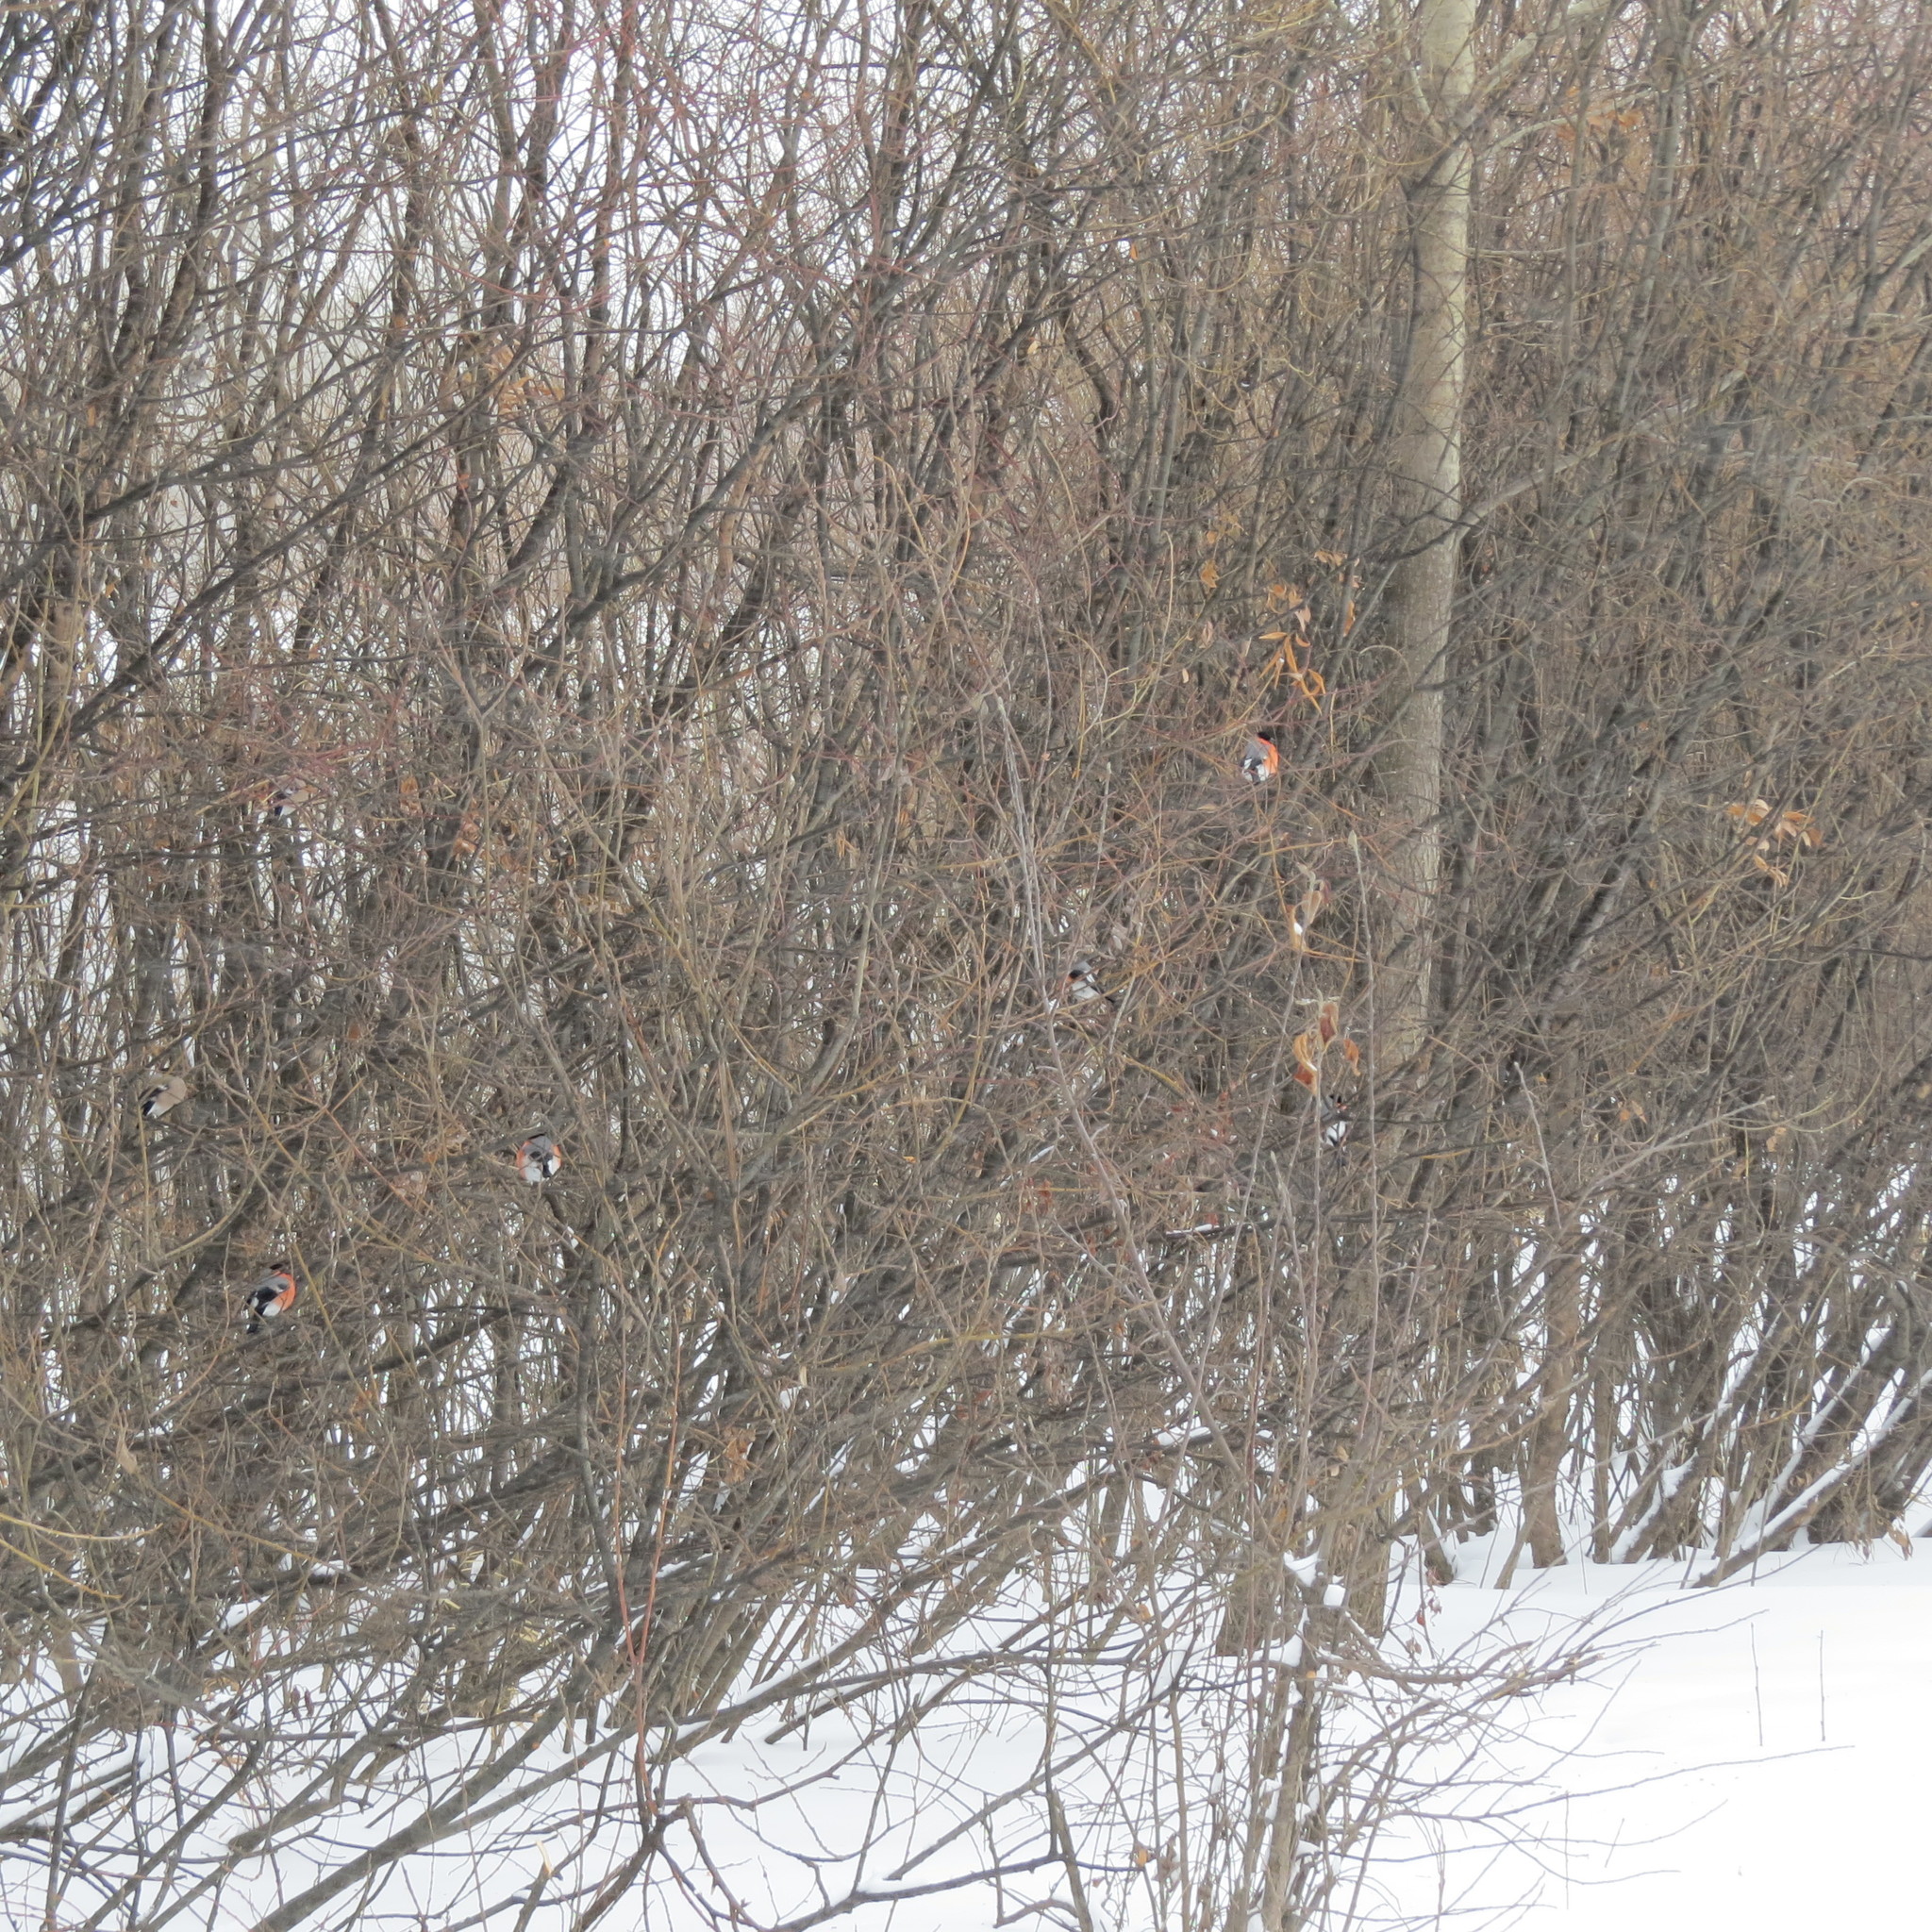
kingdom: Animalia
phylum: Chordata
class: Aves
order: Passeriformes
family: Fringillidae
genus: Pyrrhula
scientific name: Pyrrhula pyrrhula
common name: Eurasian bullfinch
